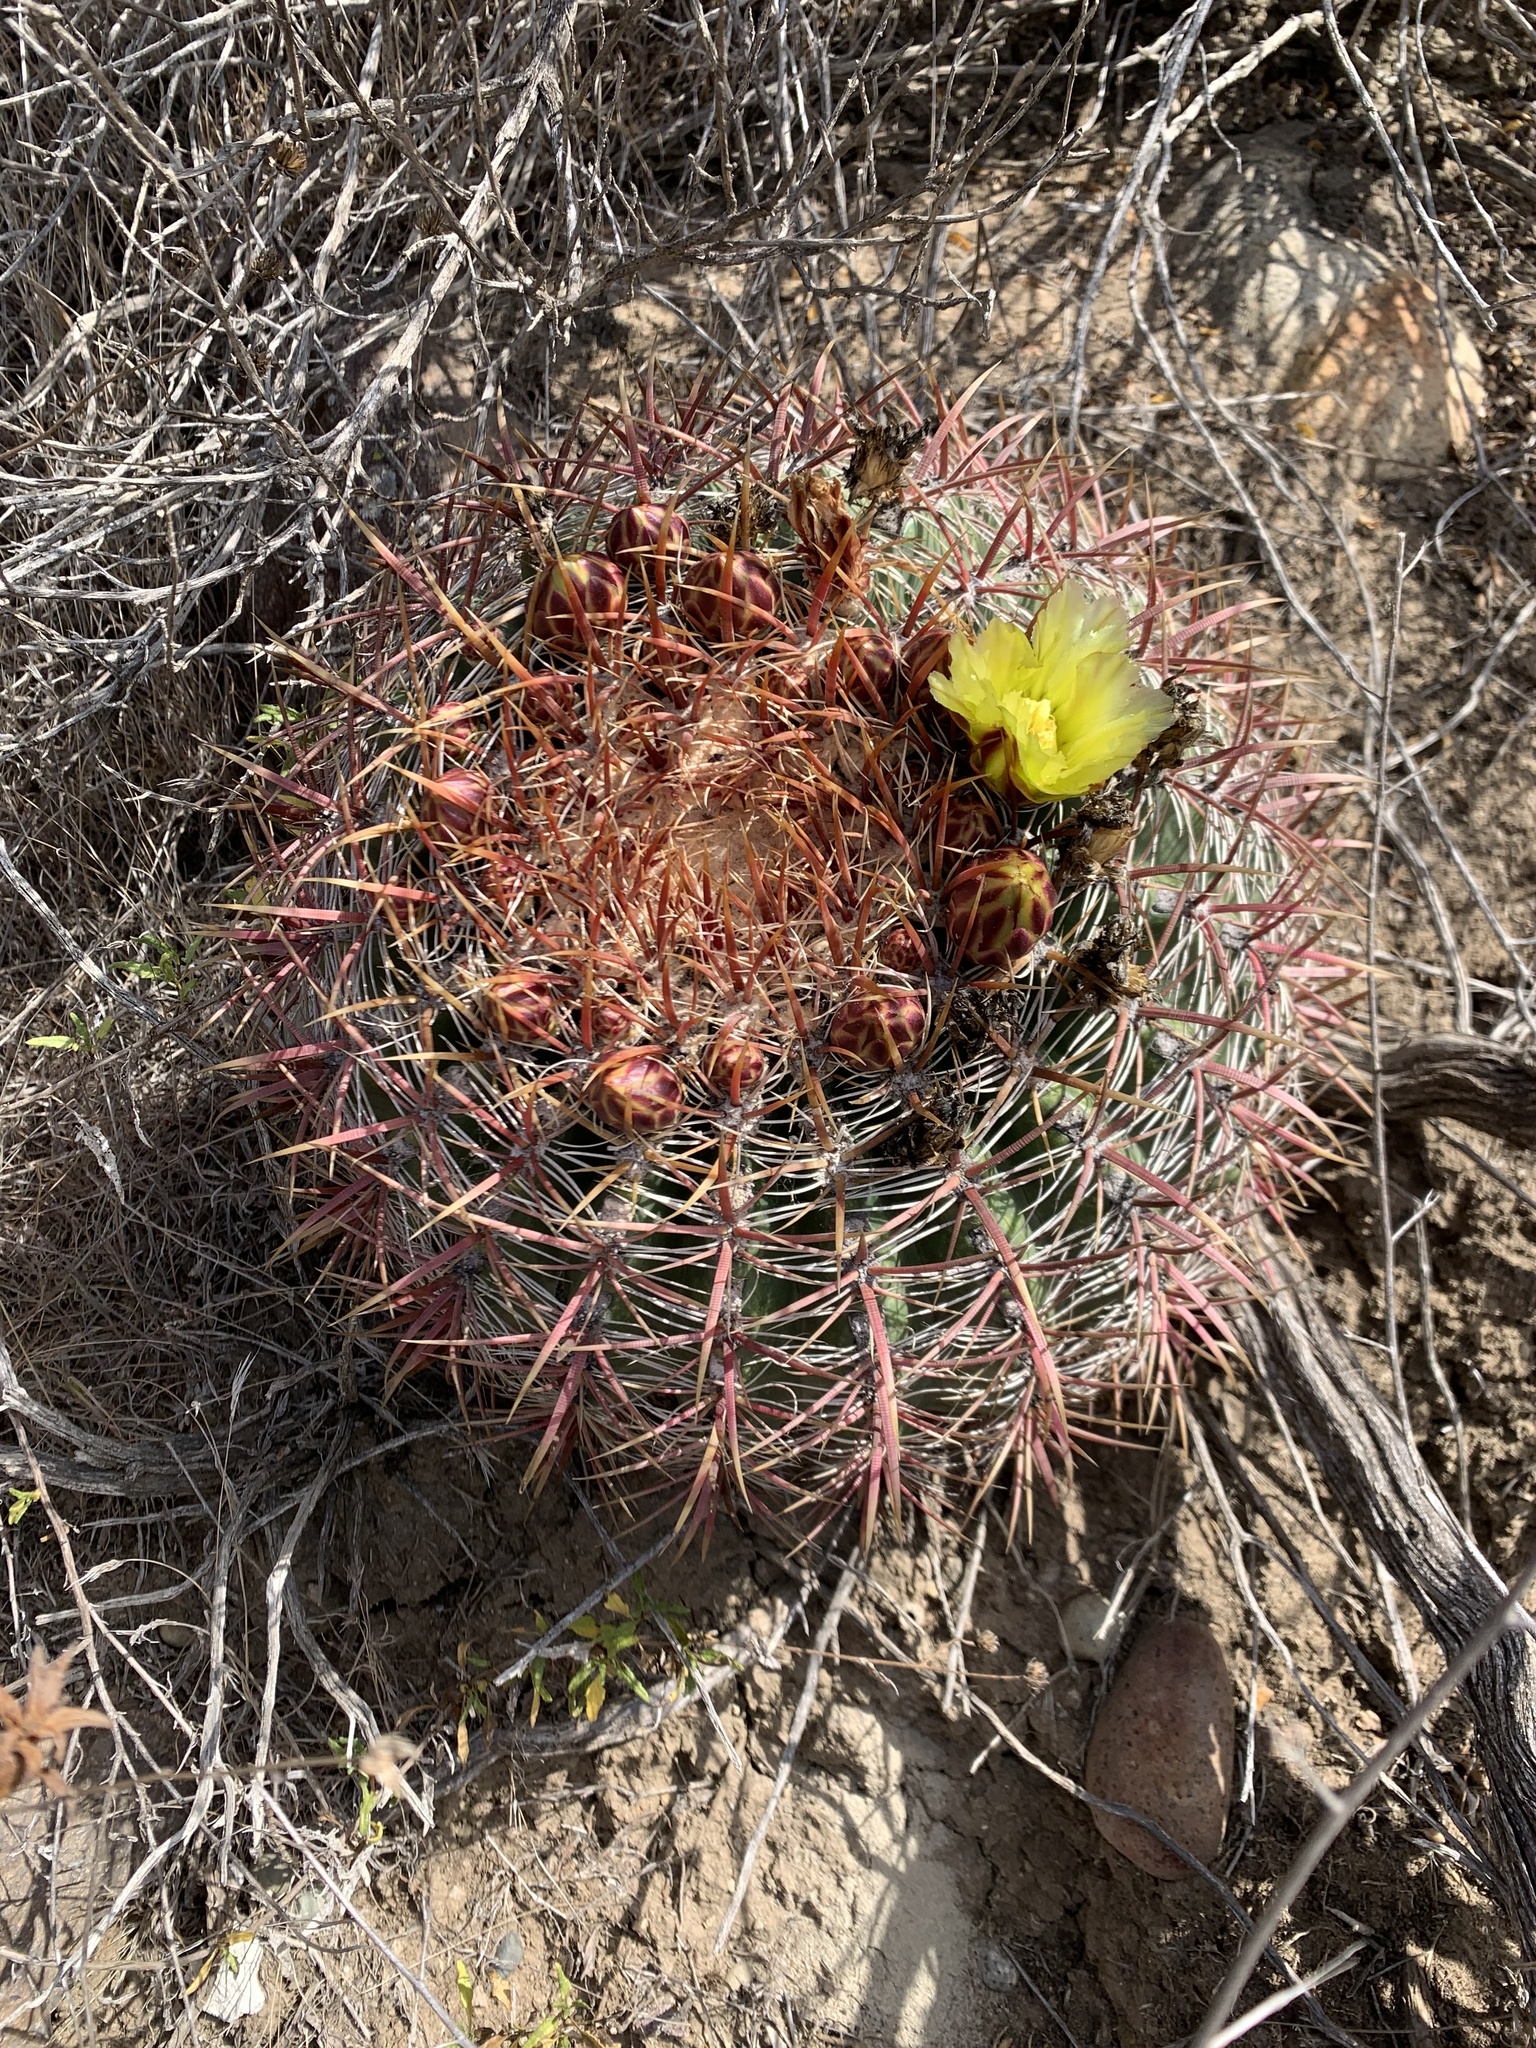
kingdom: Plantae
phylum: Tracheophyta
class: Magnoliopsida
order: Caryophyllales
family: Cactaceae
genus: Ferocactus
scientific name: Ferocactus viridescens
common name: San diego barrel cactus
